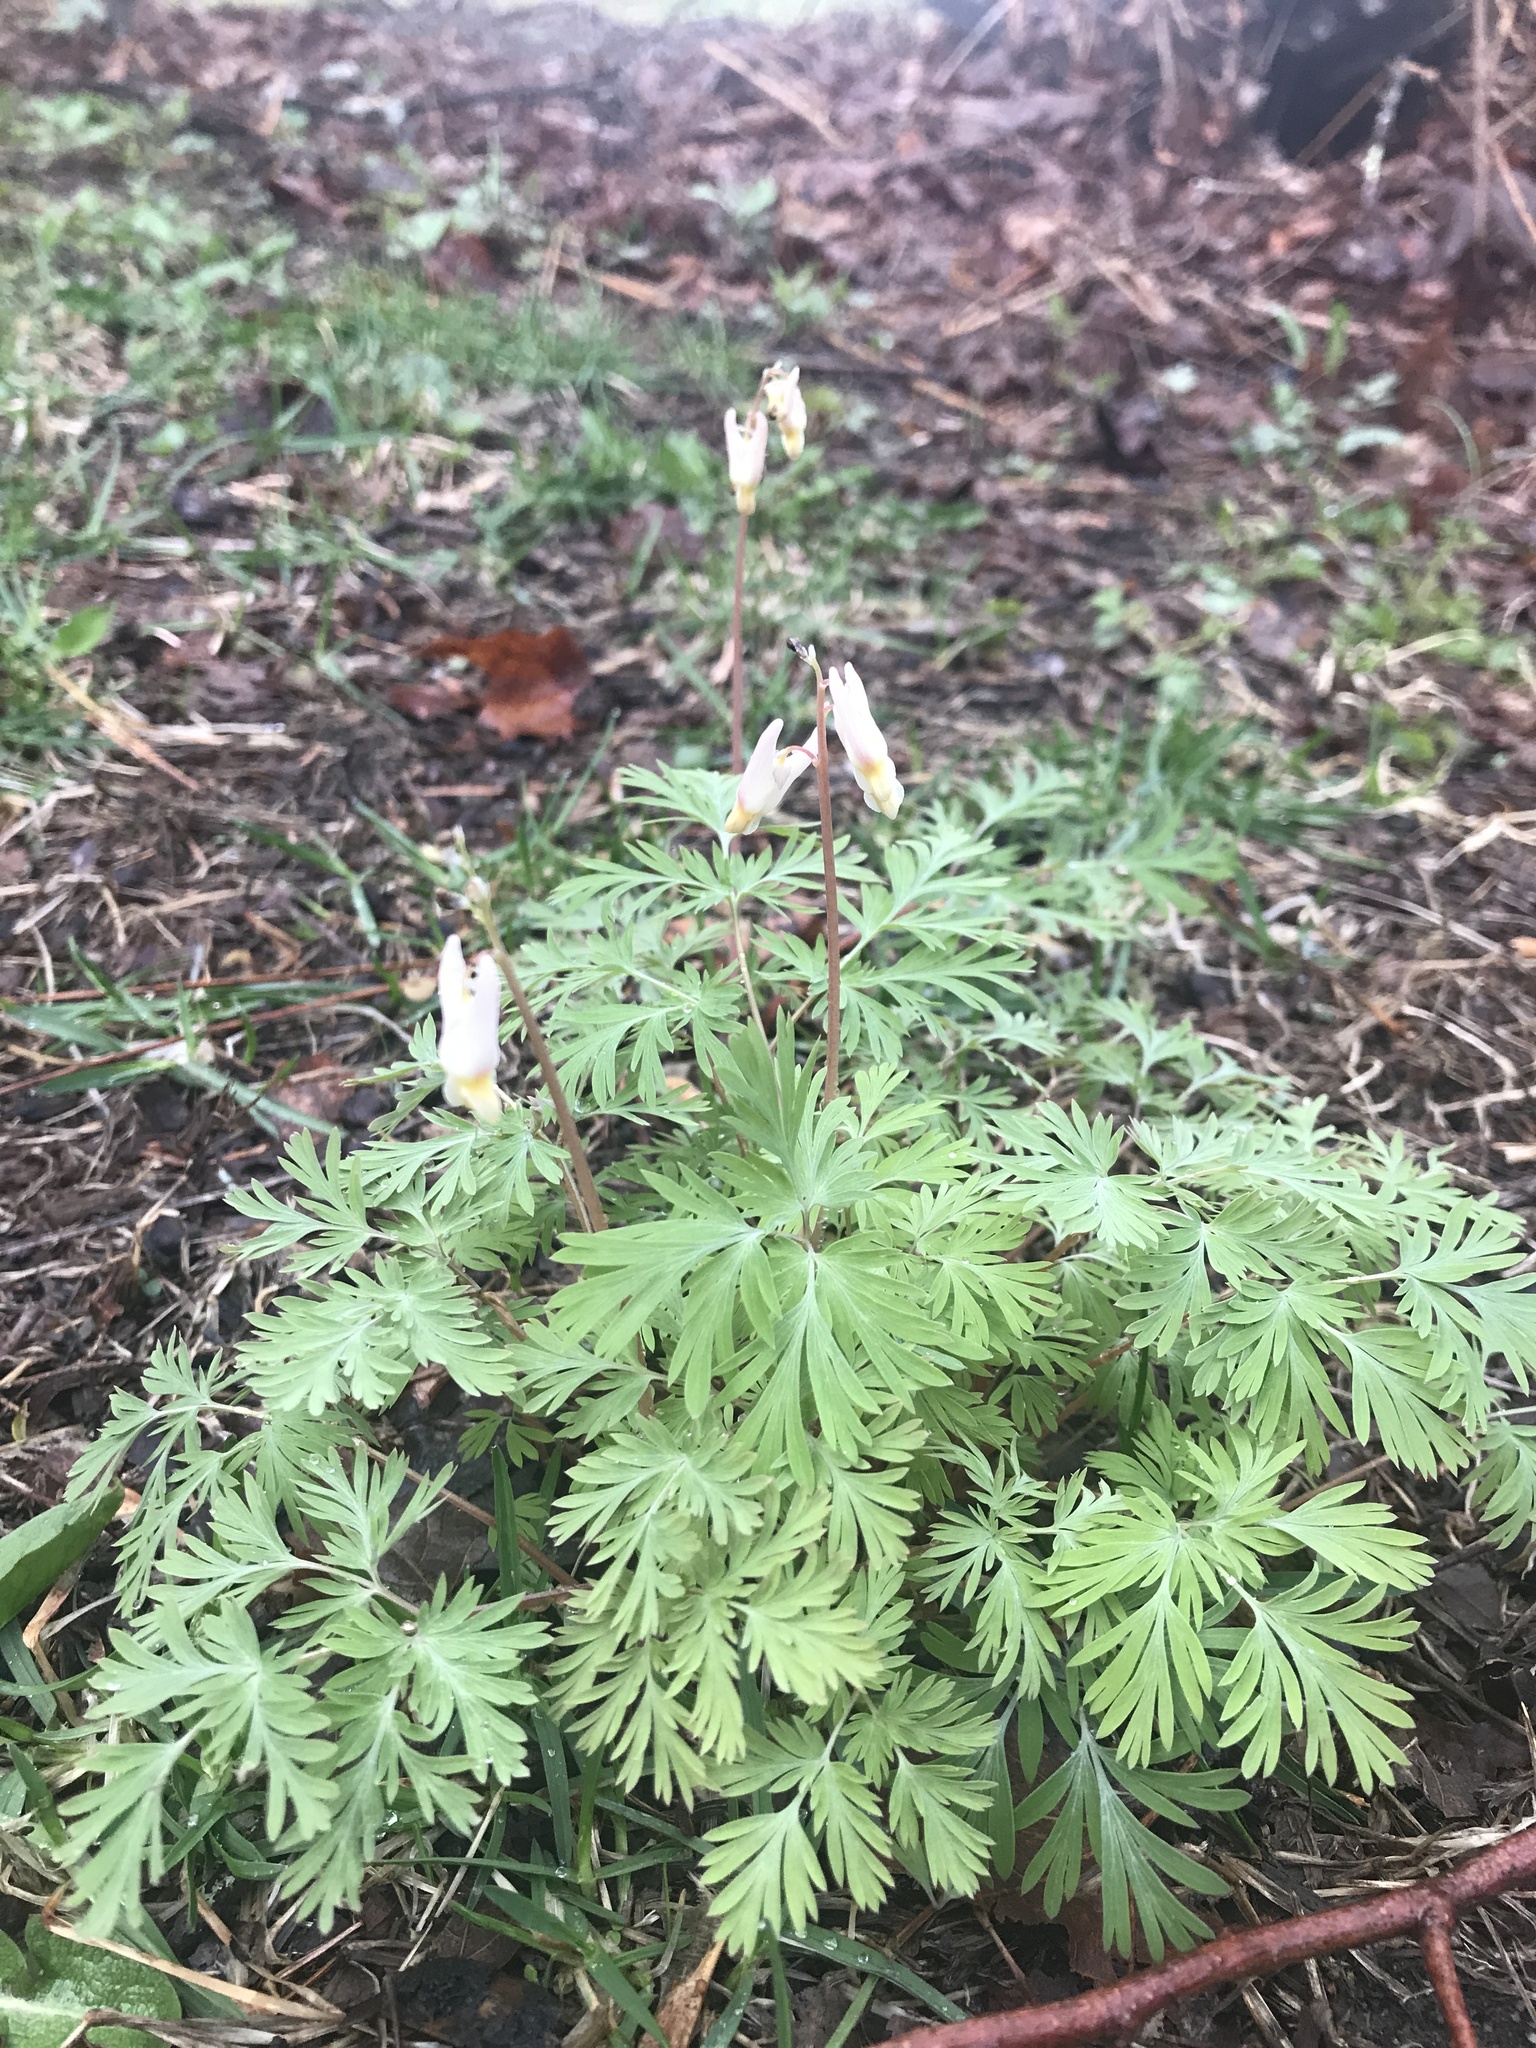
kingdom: Plantae
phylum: Tracheophyta
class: Magnoliopsida
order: Ranunculales
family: Papaveraceae
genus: Dicentra
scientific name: Dicentra cucullaria
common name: Dutchman's breeches
